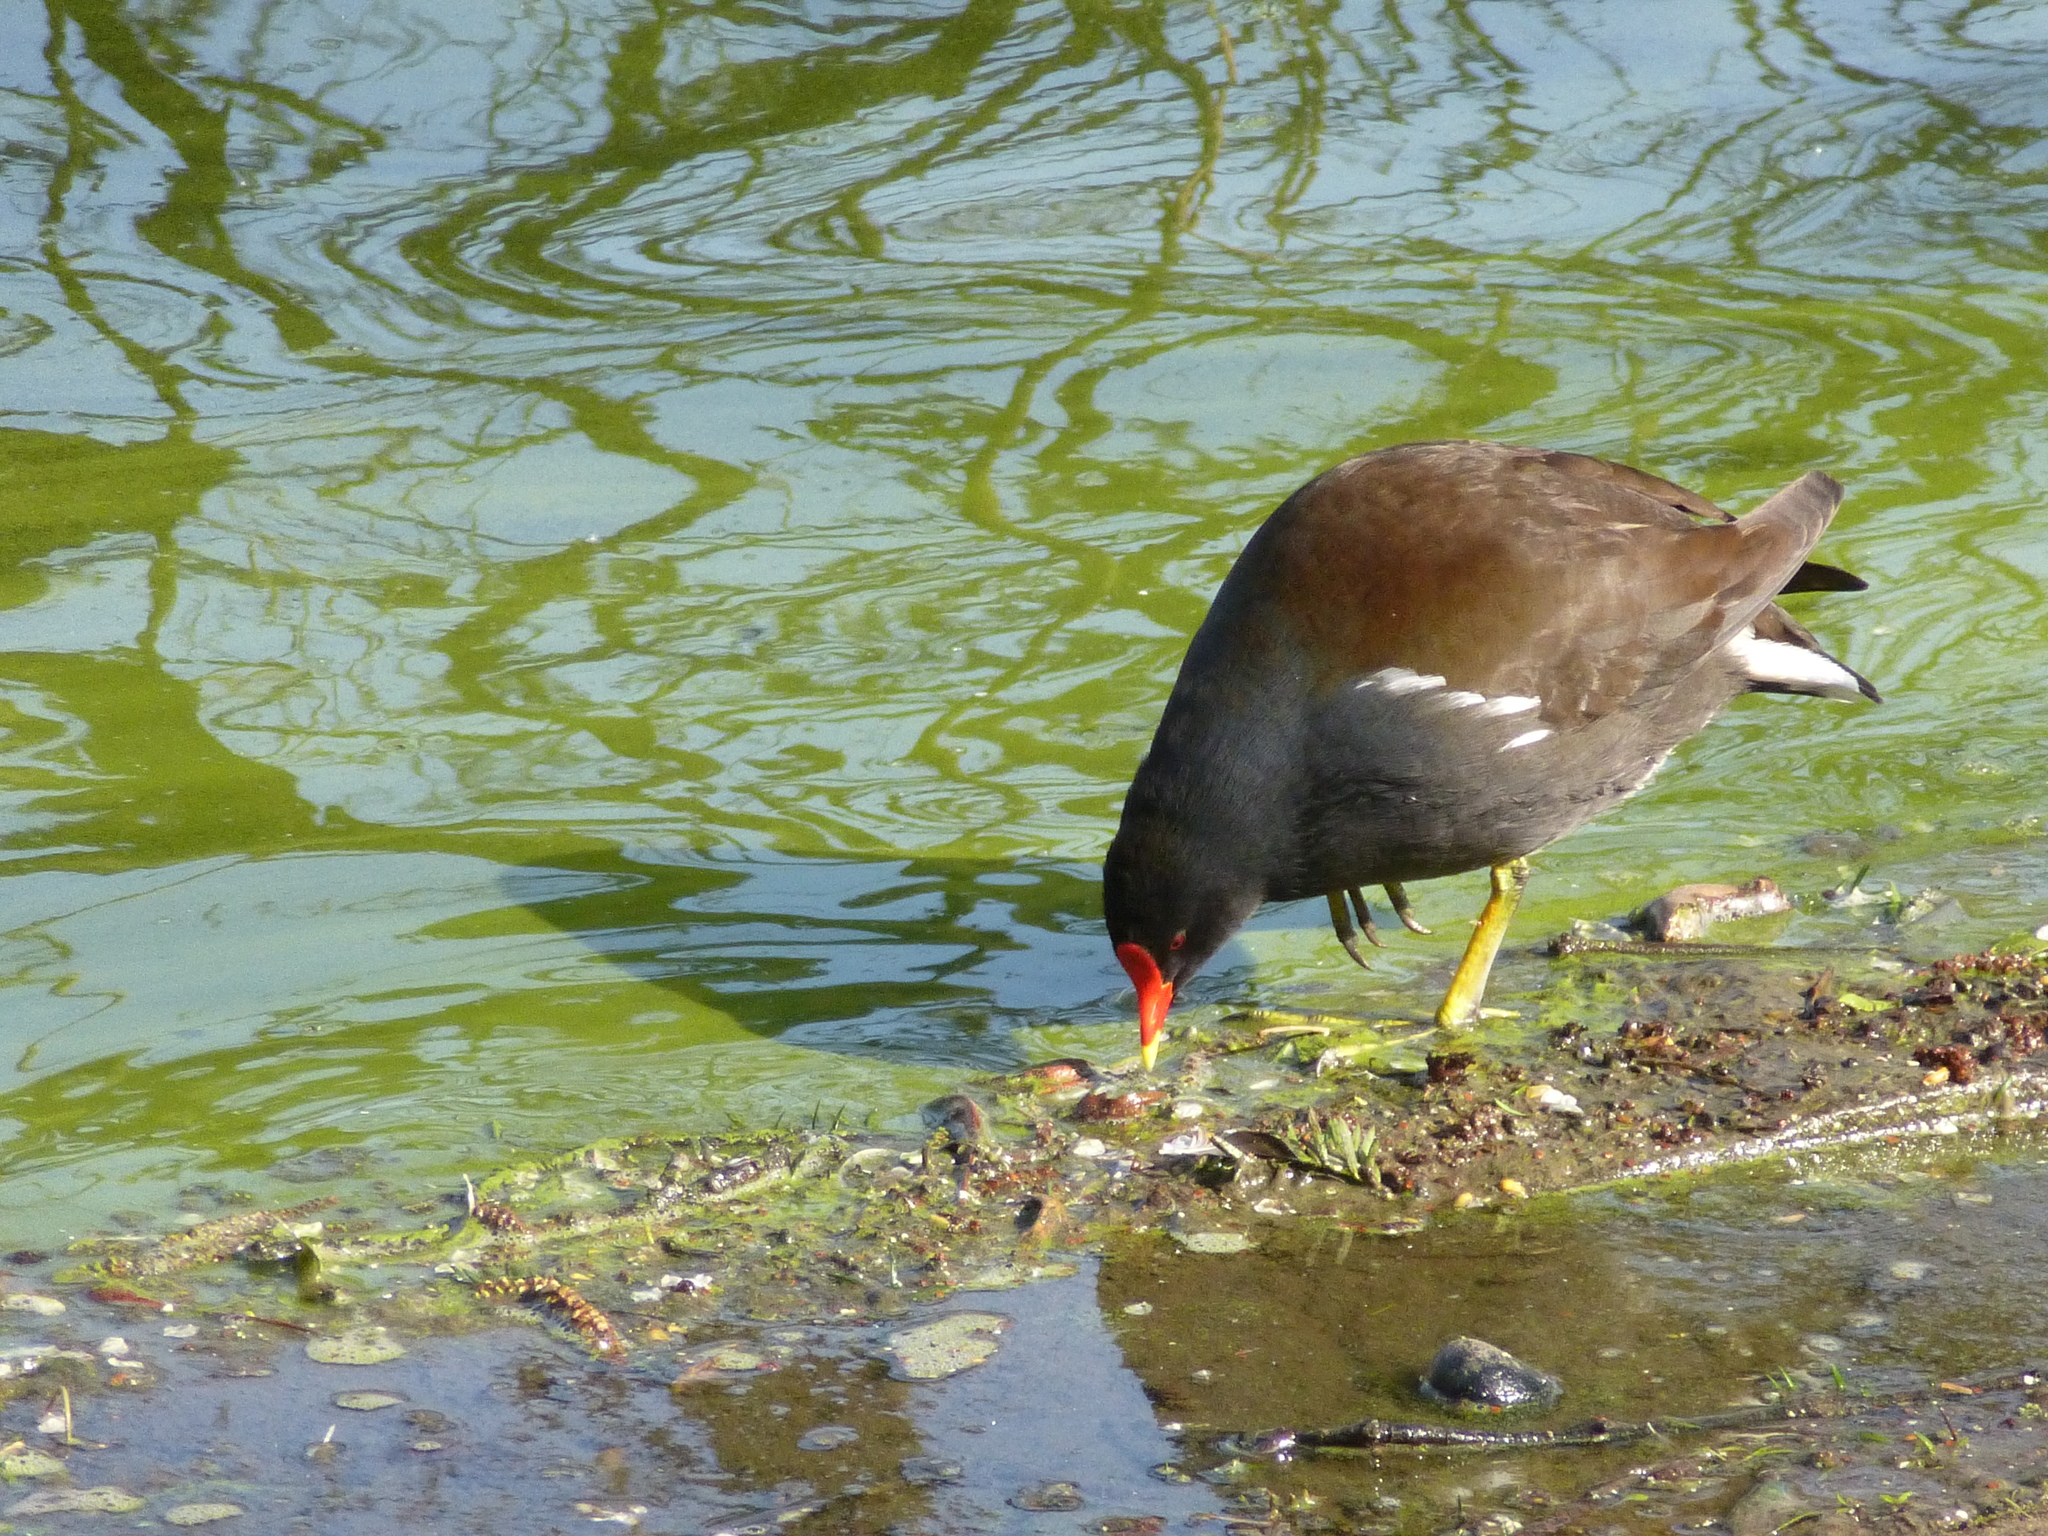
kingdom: Animalia
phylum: Chordata
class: Aves
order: Gruiformes
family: Rallidae
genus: Gallinula
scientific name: Gallinula chloropus
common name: Common moorhen
